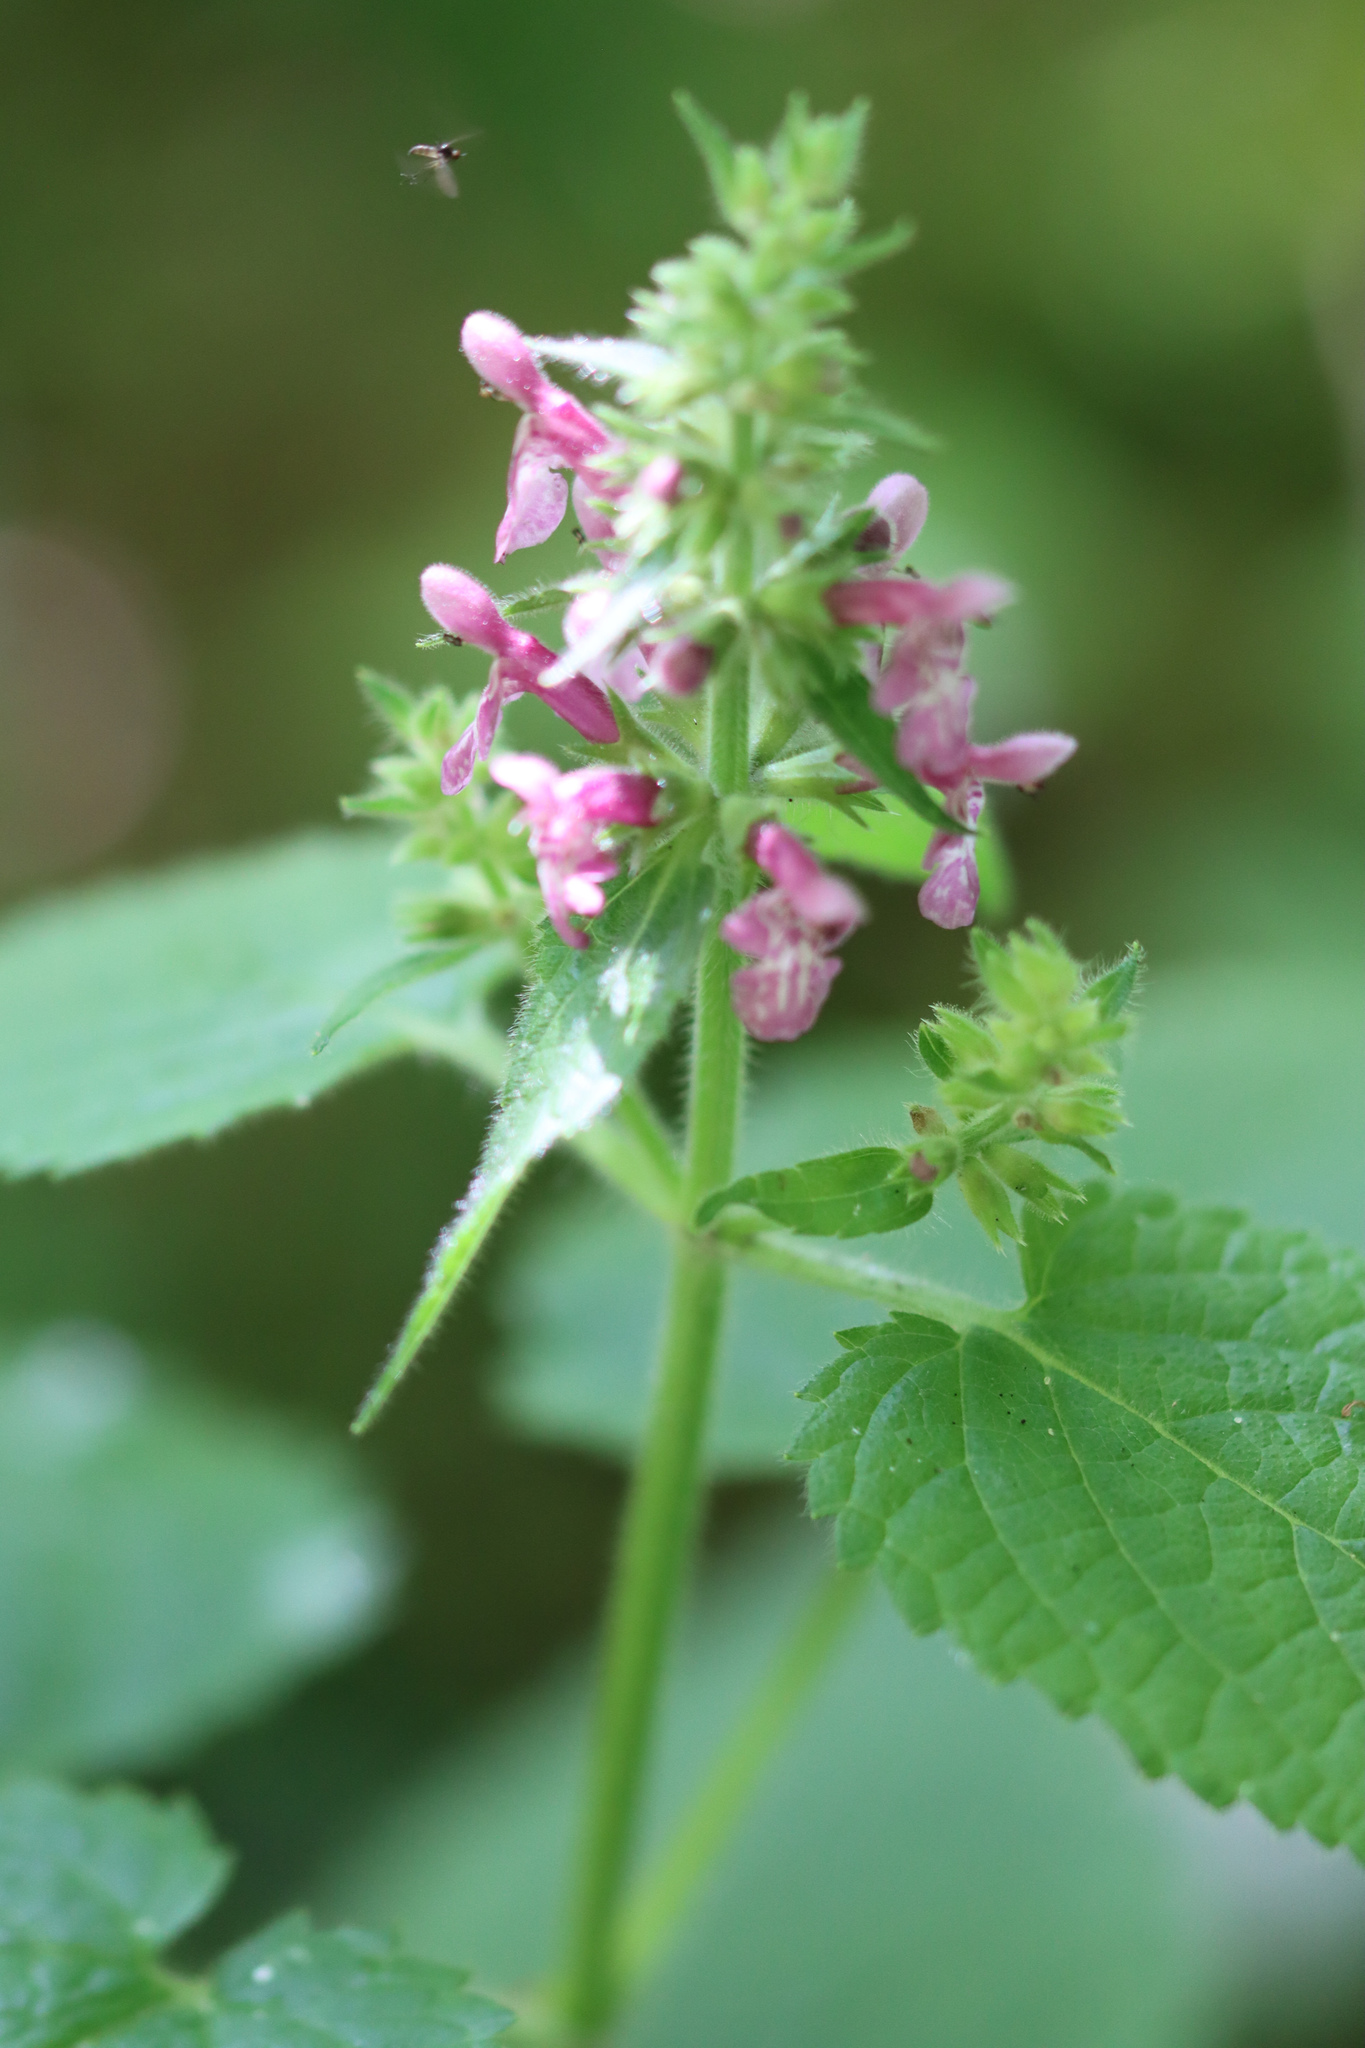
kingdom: Plantae
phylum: Tracheophyta
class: Magnoliopsida
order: Lamiales
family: Lamiaceae
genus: Stachys
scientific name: Stachys sylvatica
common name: Hedge woundwort
